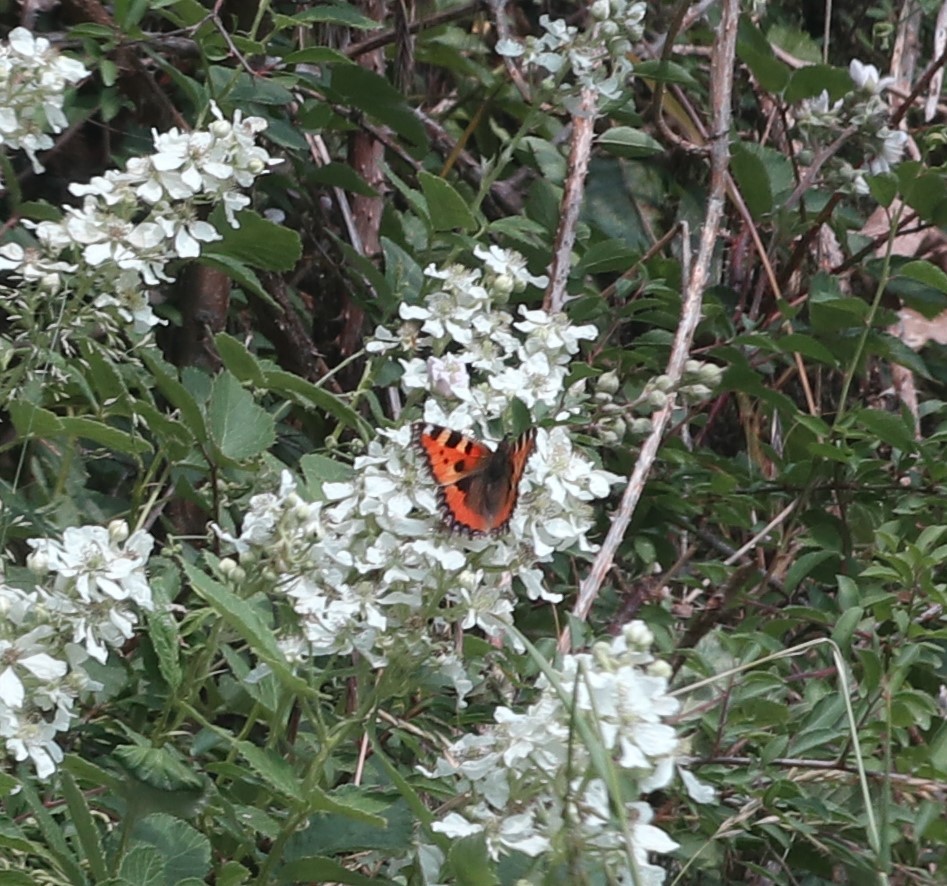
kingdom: Animalia
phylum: Arthropoda
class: Insecta
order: Lepidoptera
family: Nymphalidae
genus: Aglais
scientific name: Aglais urticae
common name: Small tortoiseshell
